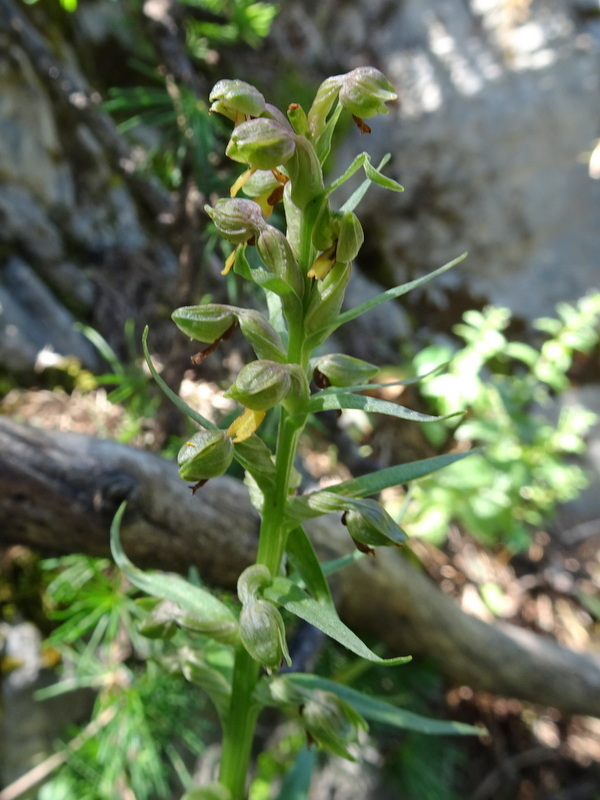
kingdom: Plantae
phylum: Tracheophyta
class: Liliopsida
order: Asparagales
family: Orchidaceae
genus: Dactylorhiza
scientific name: Dactylorhiza viridis
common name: Longbract frog orchid
